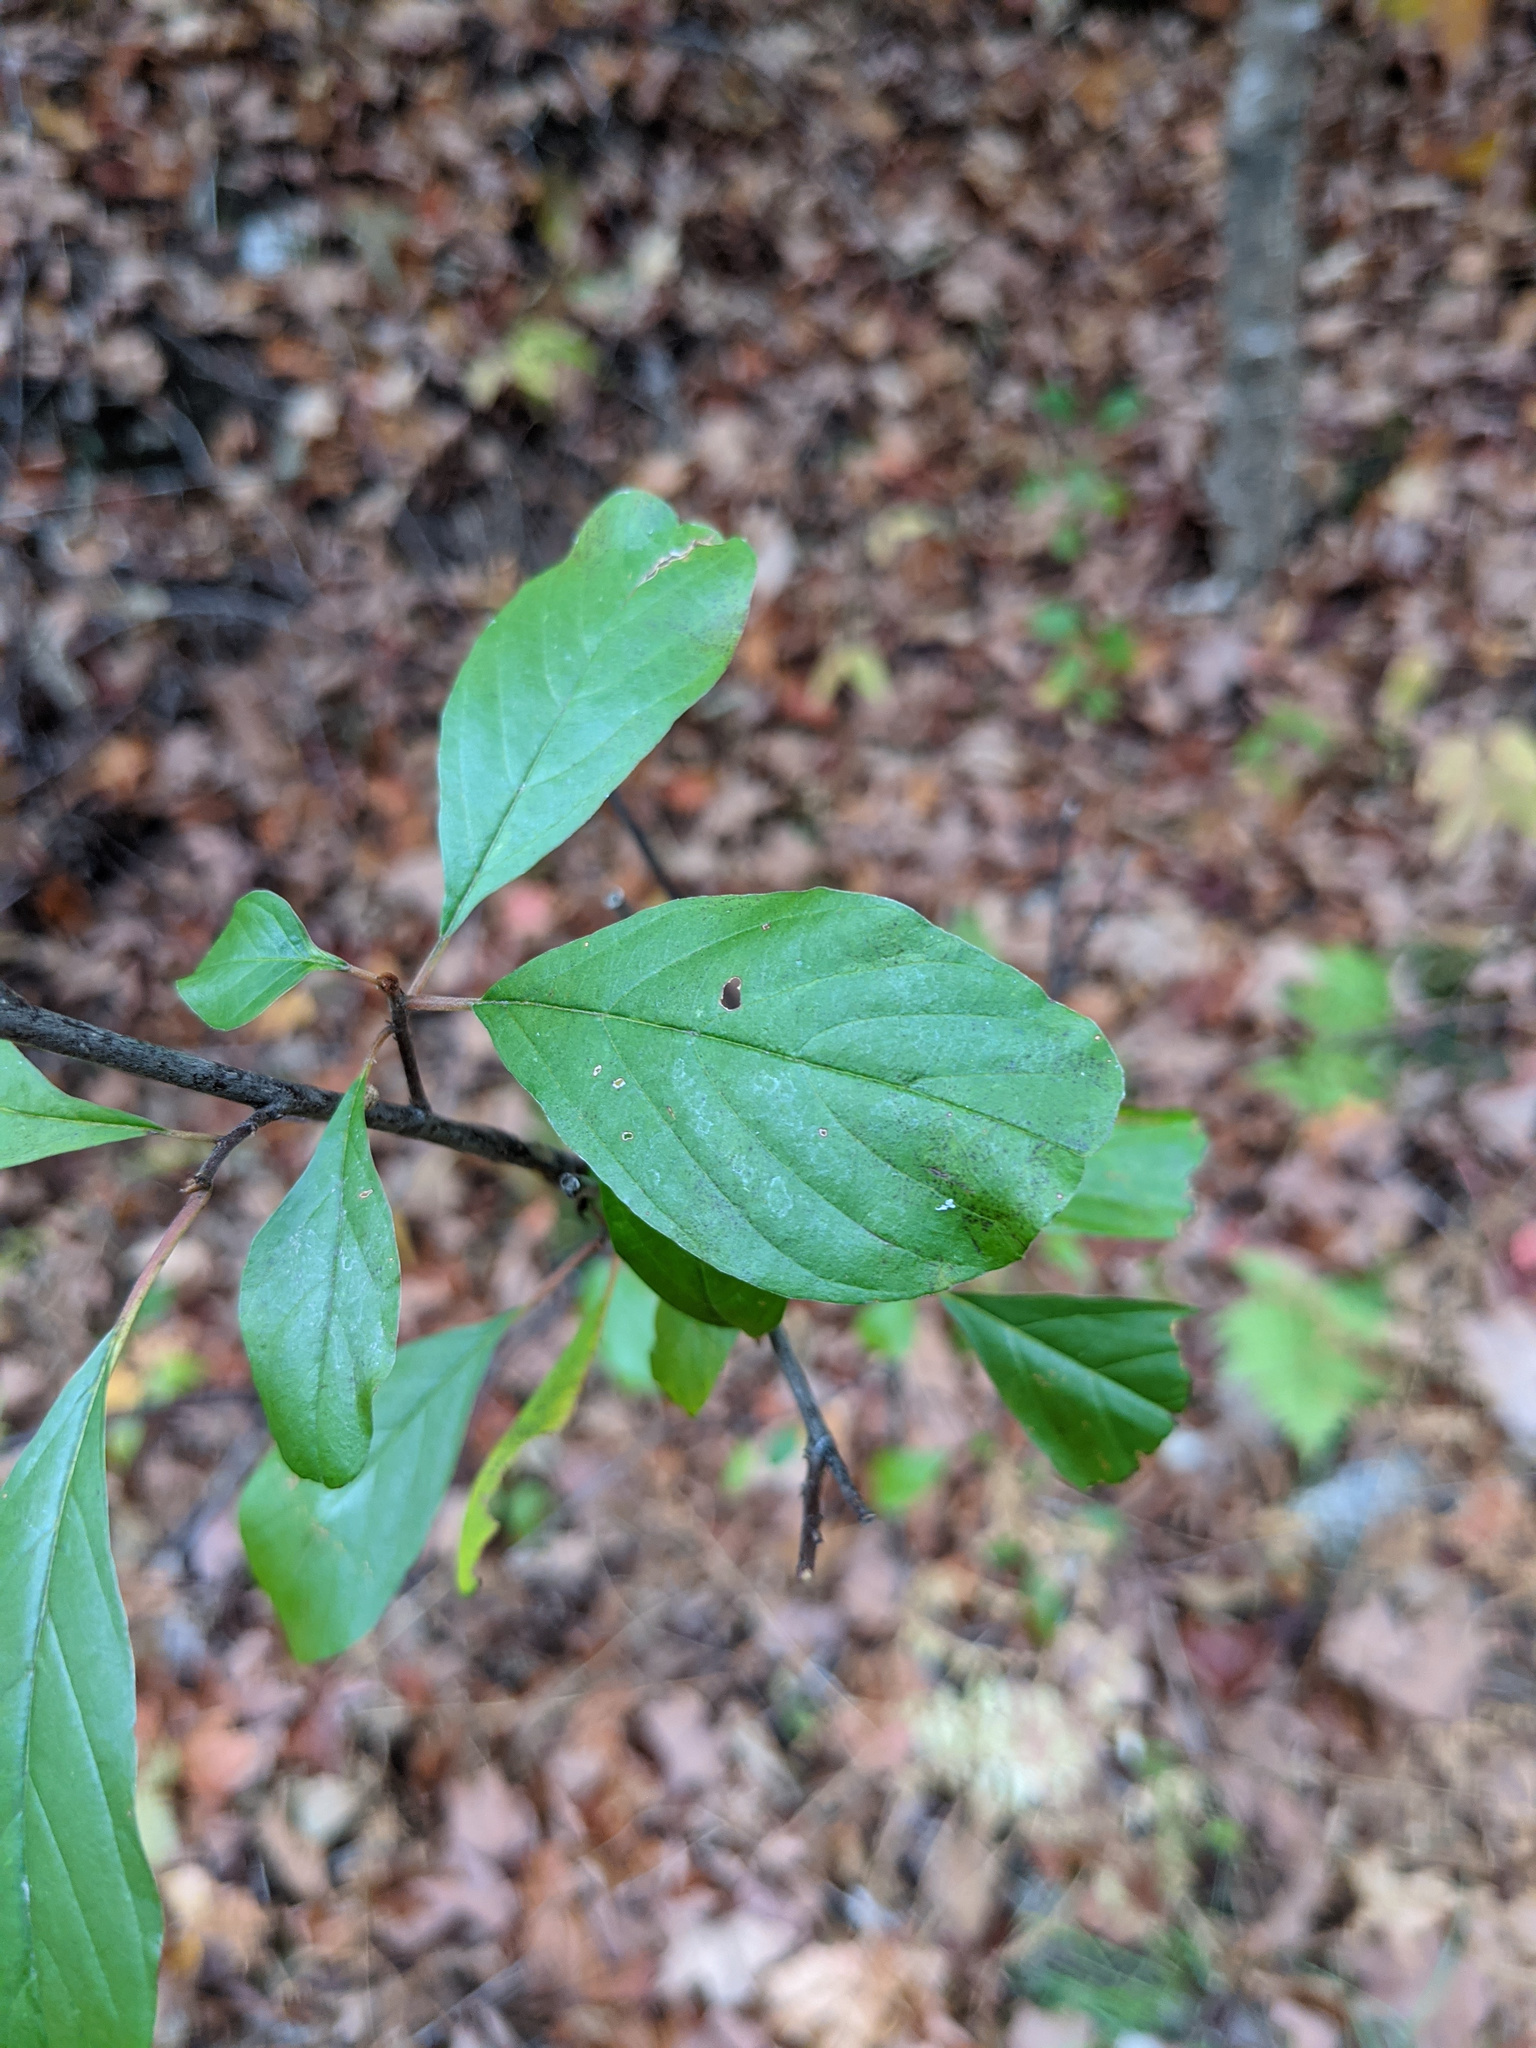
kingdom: Plantae
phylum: Tracheophyta
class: Magnoliopsida
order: Rosales
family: Rhamnaceae
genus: Frangula
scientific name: Frangula alnus
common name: Alder buckthorn
